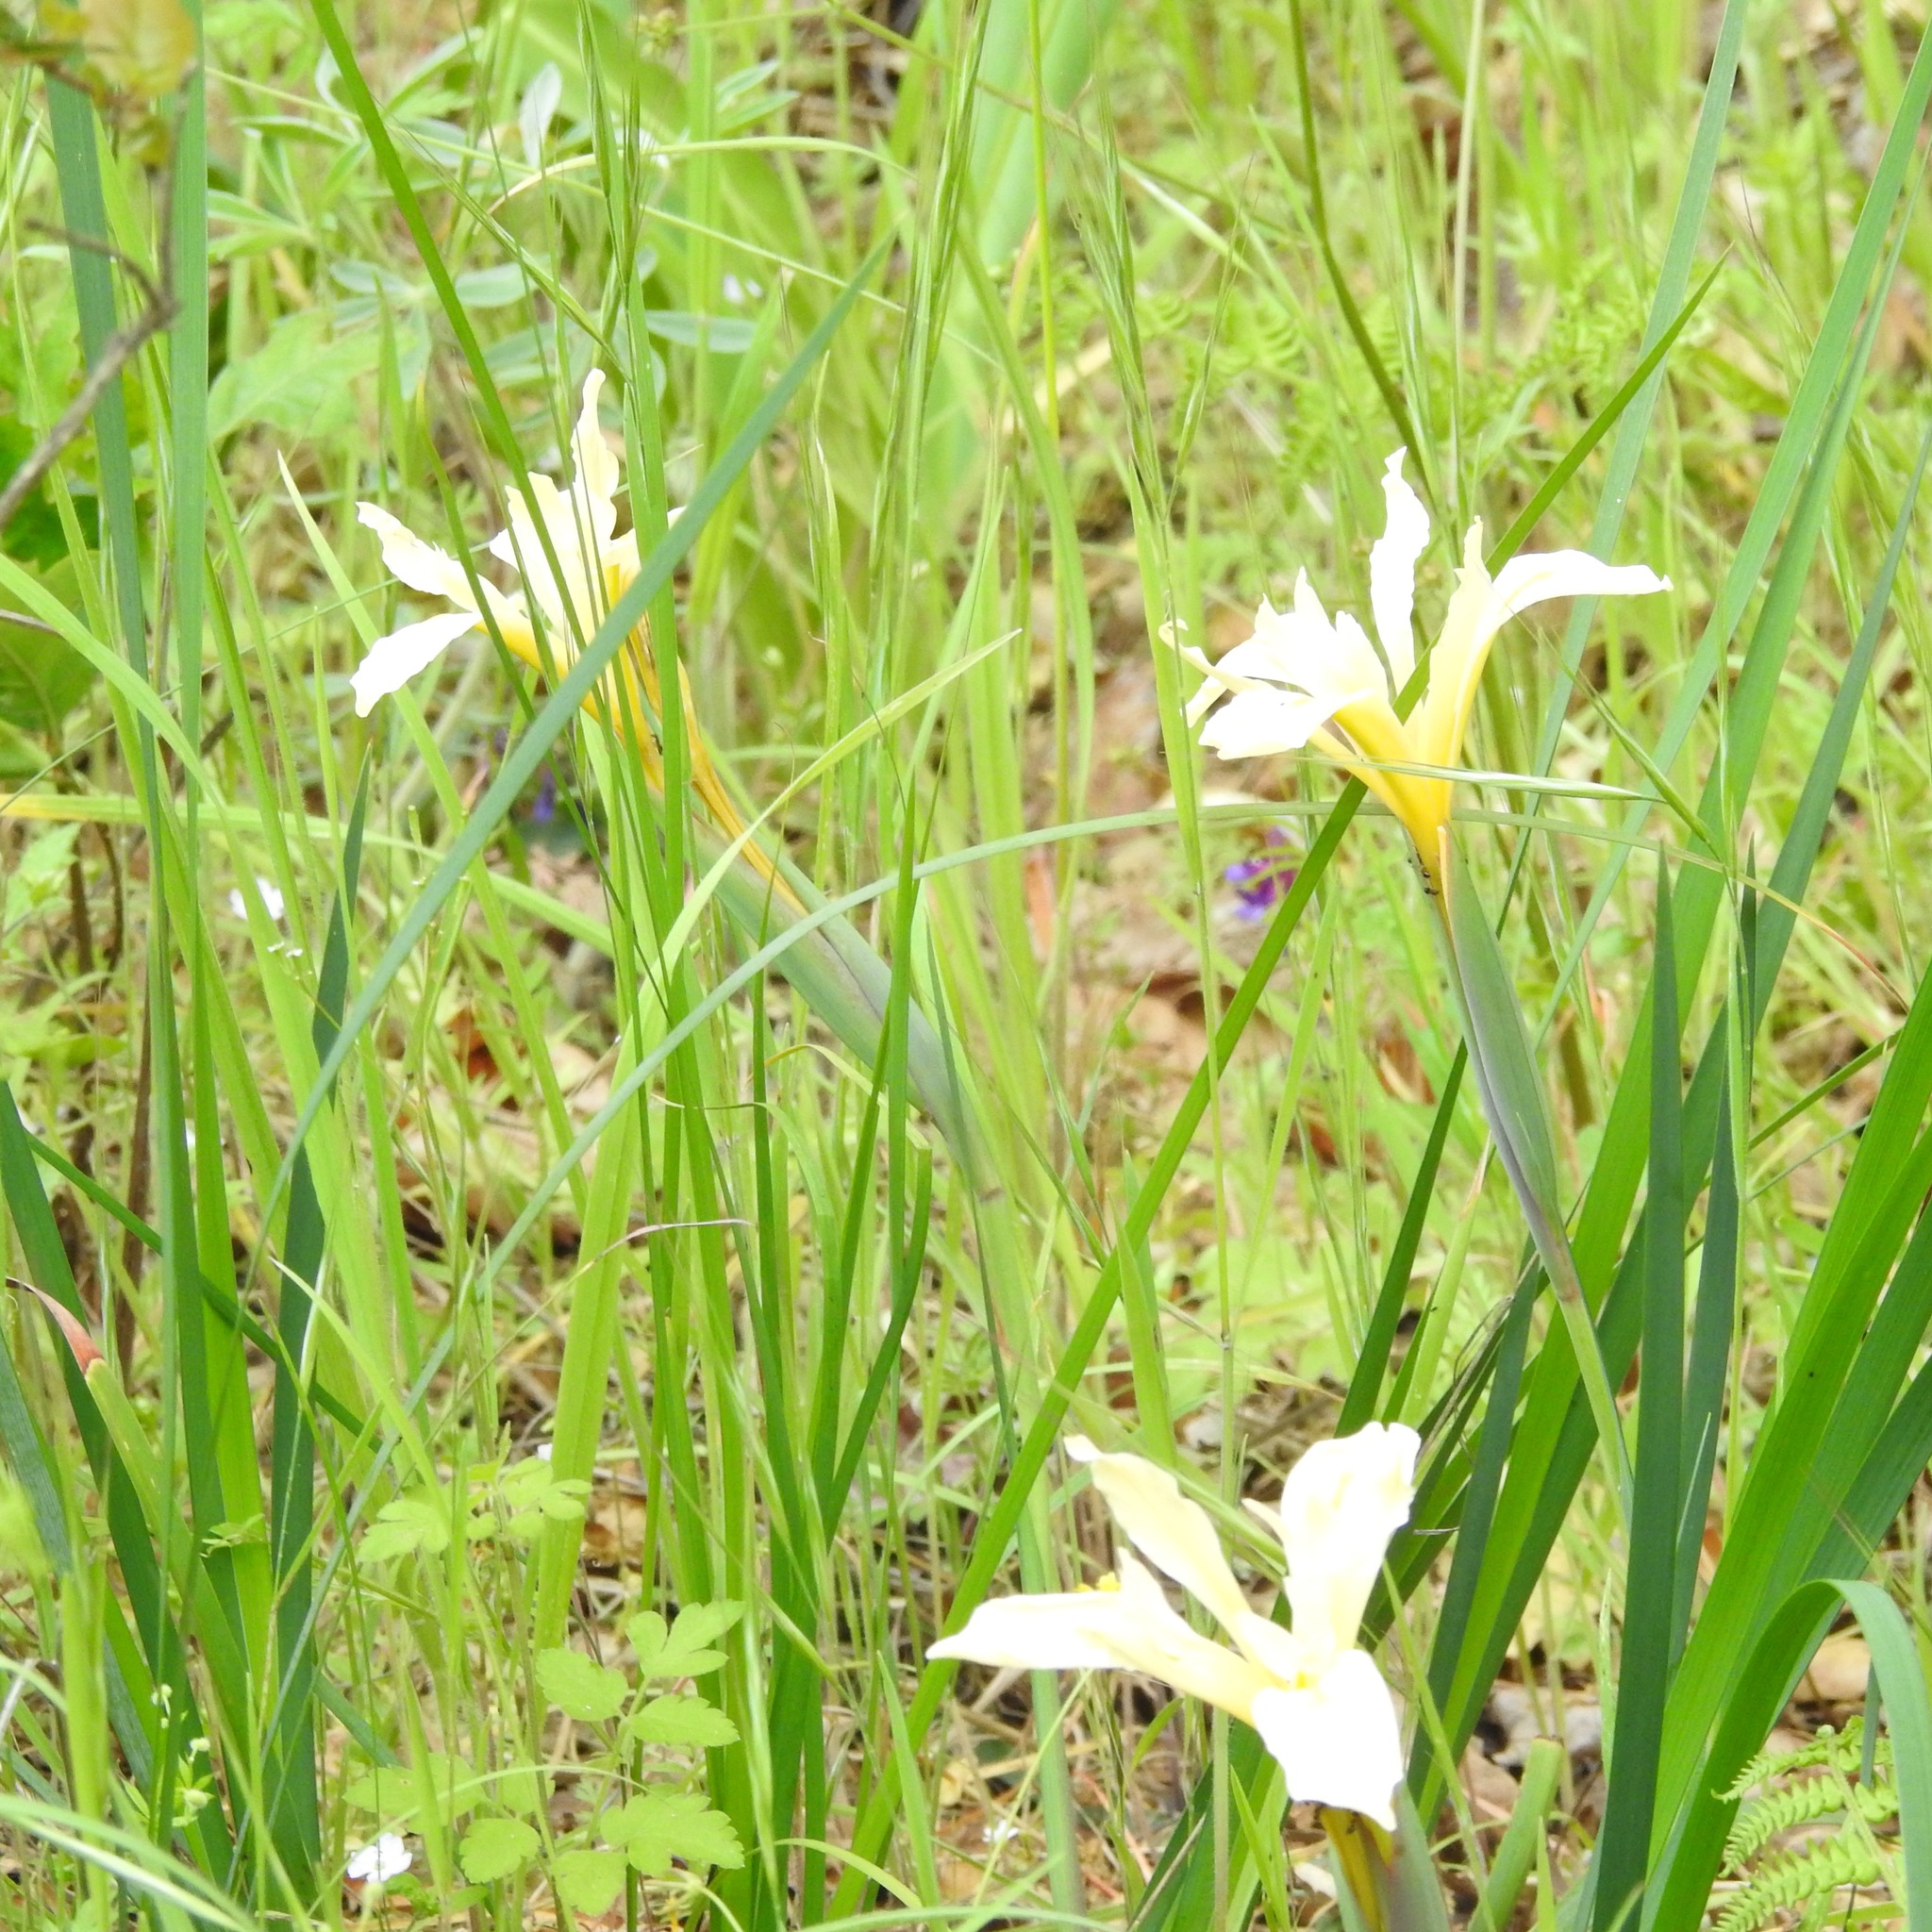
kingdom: Plantae
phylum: Tracheophyta
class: Liliopsida
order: Asparagales
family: Iridaceae
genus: Iris
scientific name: Iris fernaldii
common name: Fernald's iris
